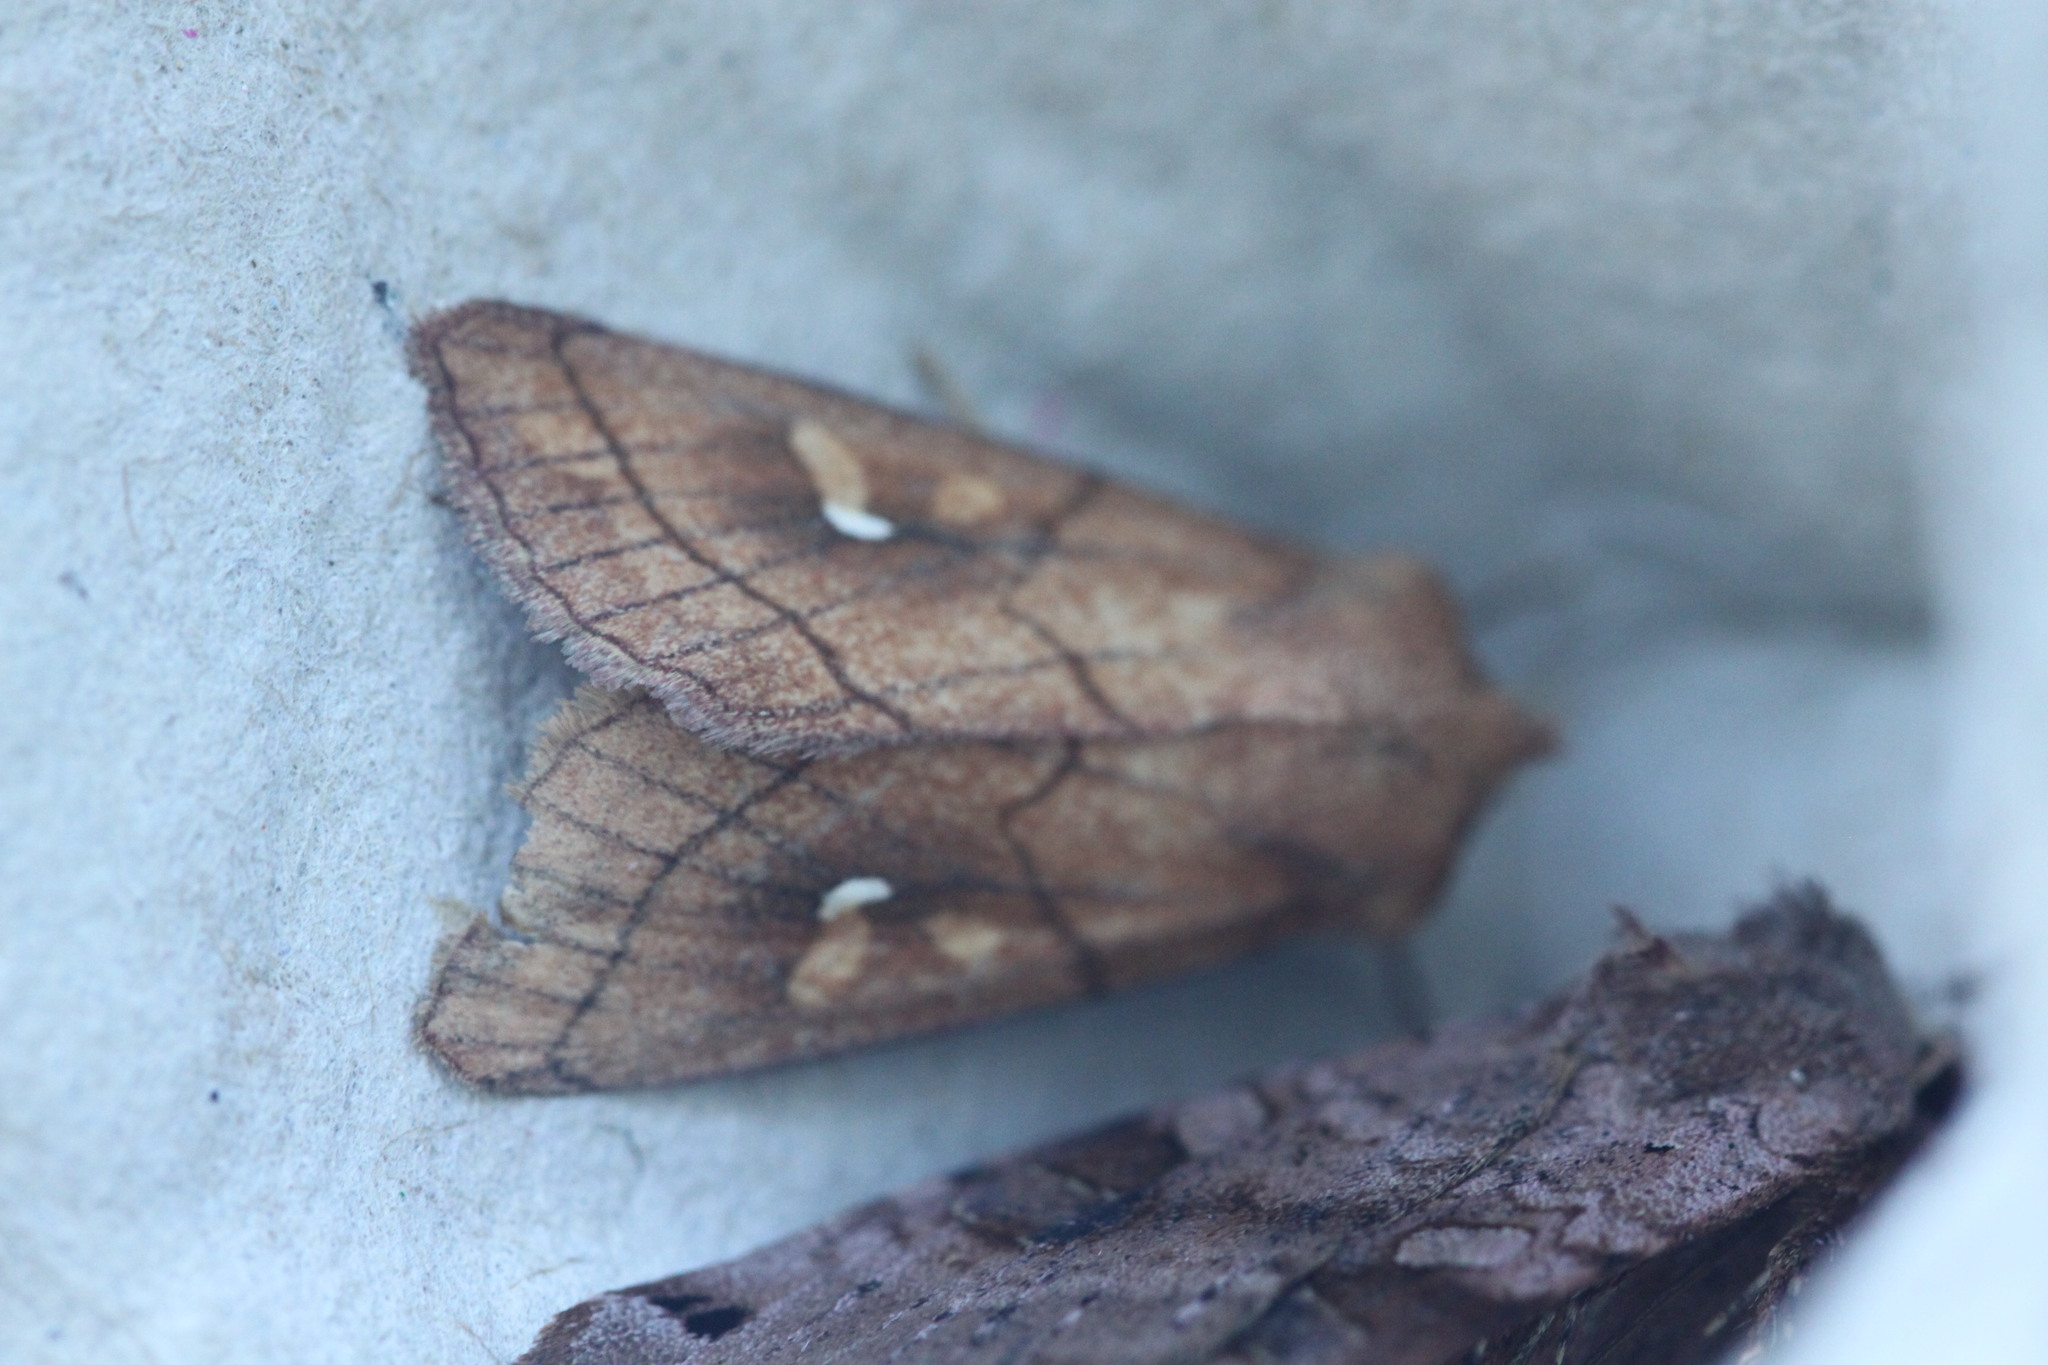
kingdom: Animalia
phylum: Arthropoda
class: Insecta
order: Lepidoptera
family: Noctuidae
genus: Mythimna
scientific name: Mythimna conigera
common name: Brown-line bright-eye
